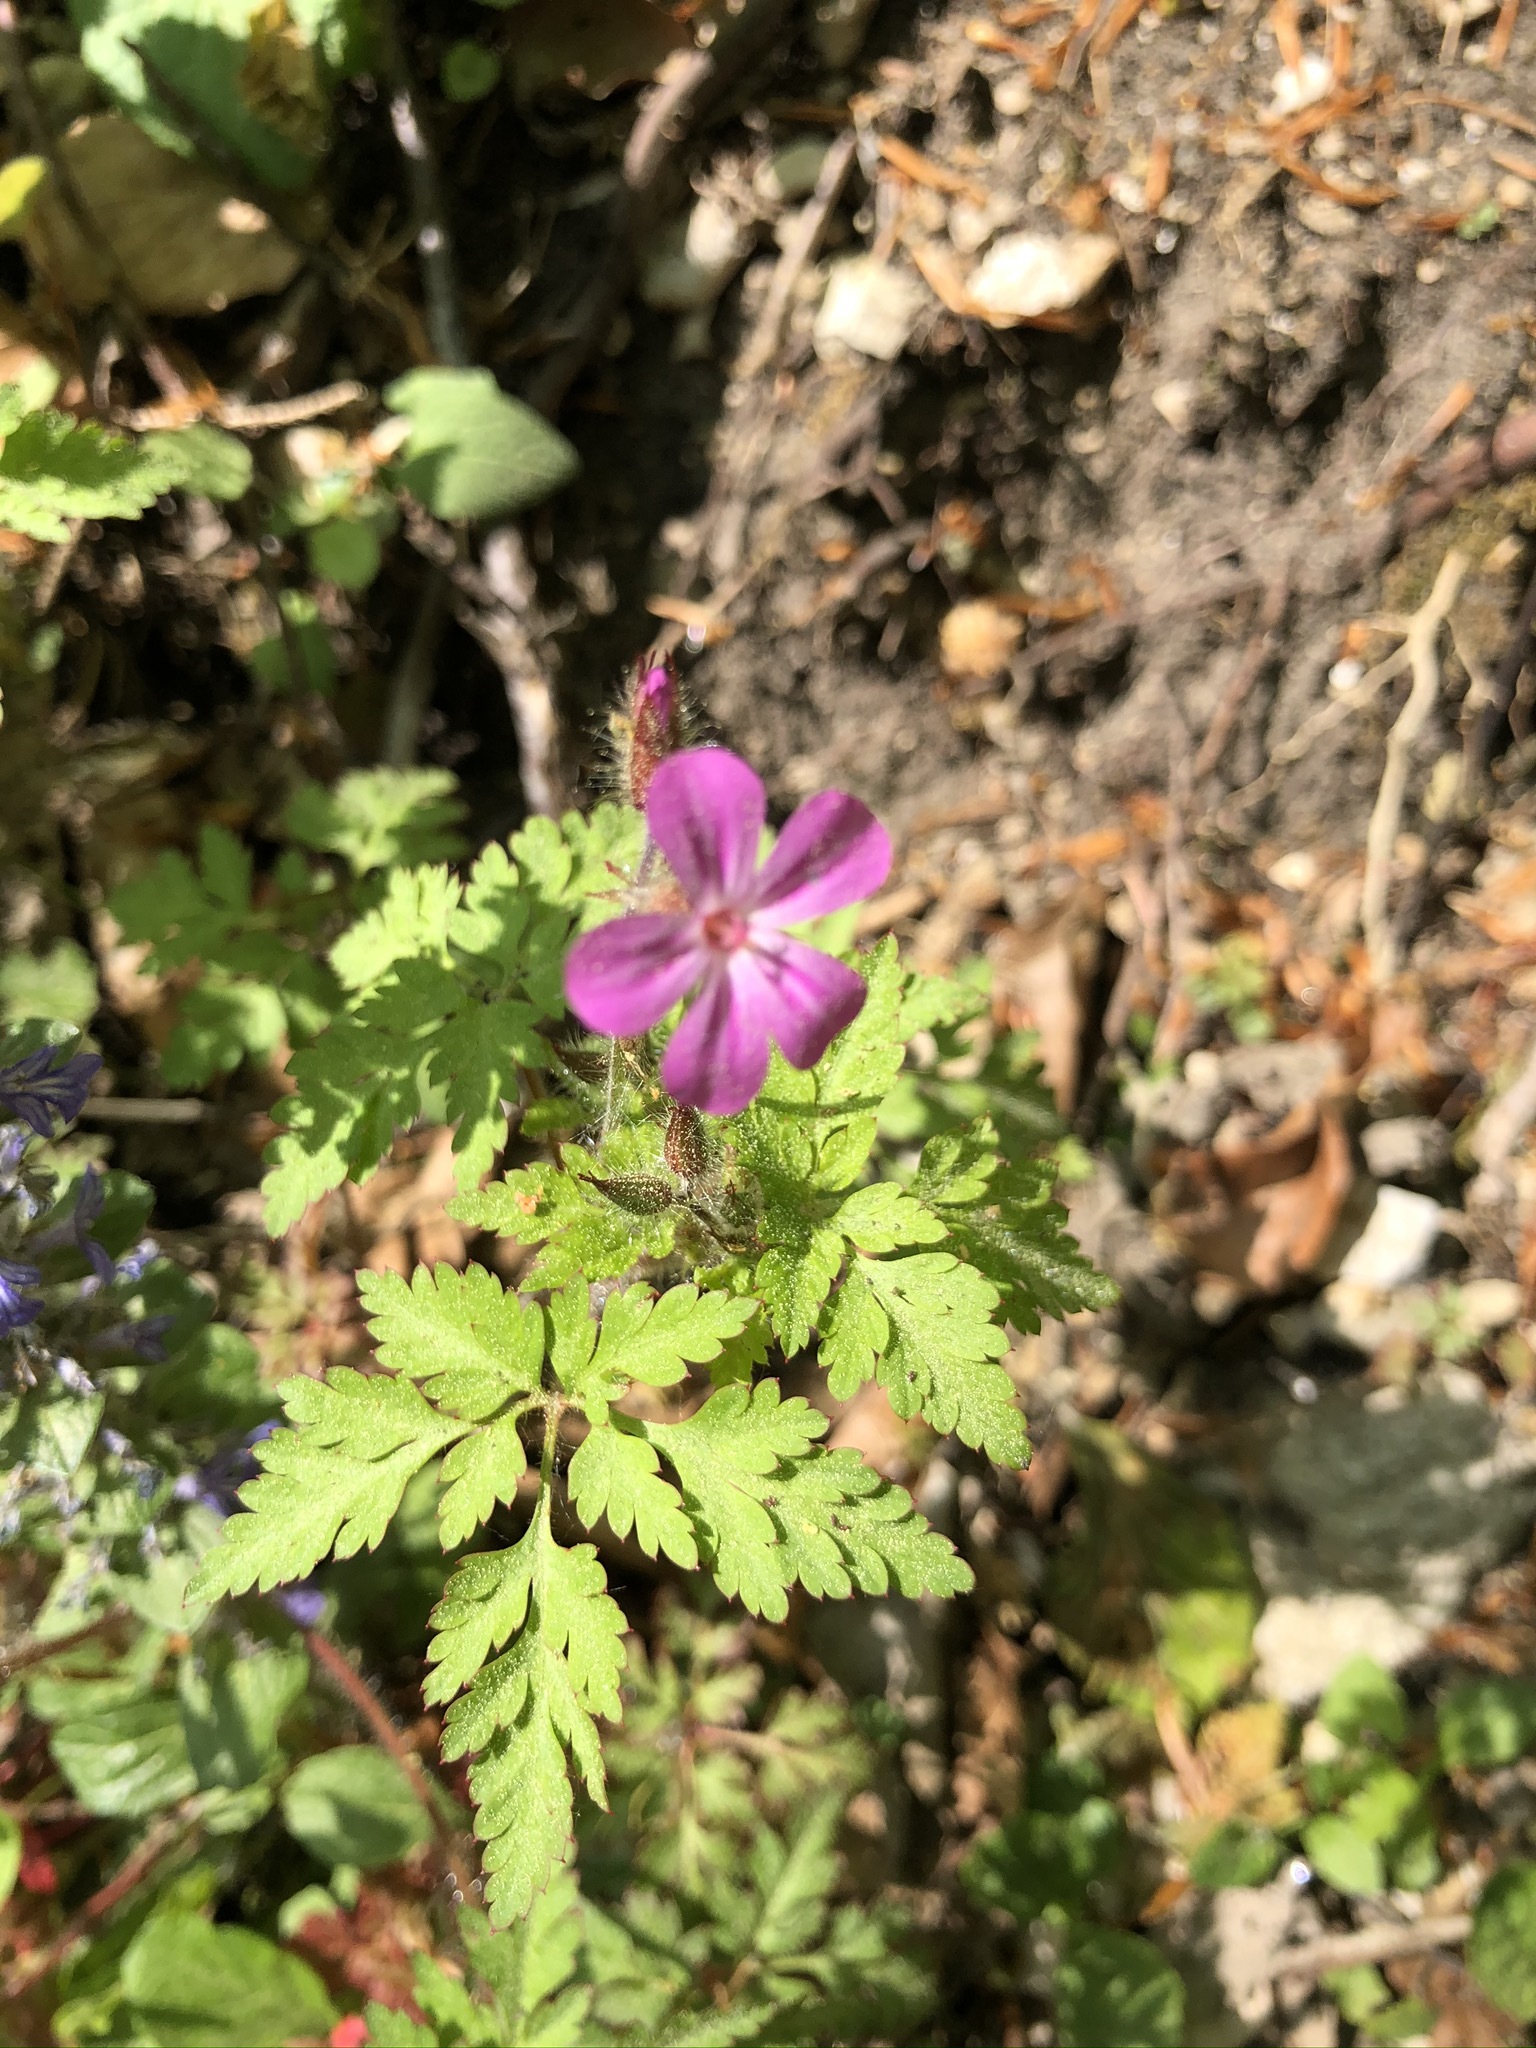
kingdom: Plantae
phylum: Tracheophyta
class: Magnoliopsida
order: Geraniales
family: Geraniaceae
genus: Geranium
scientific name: Geranium robertianum
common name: Herb-robert
